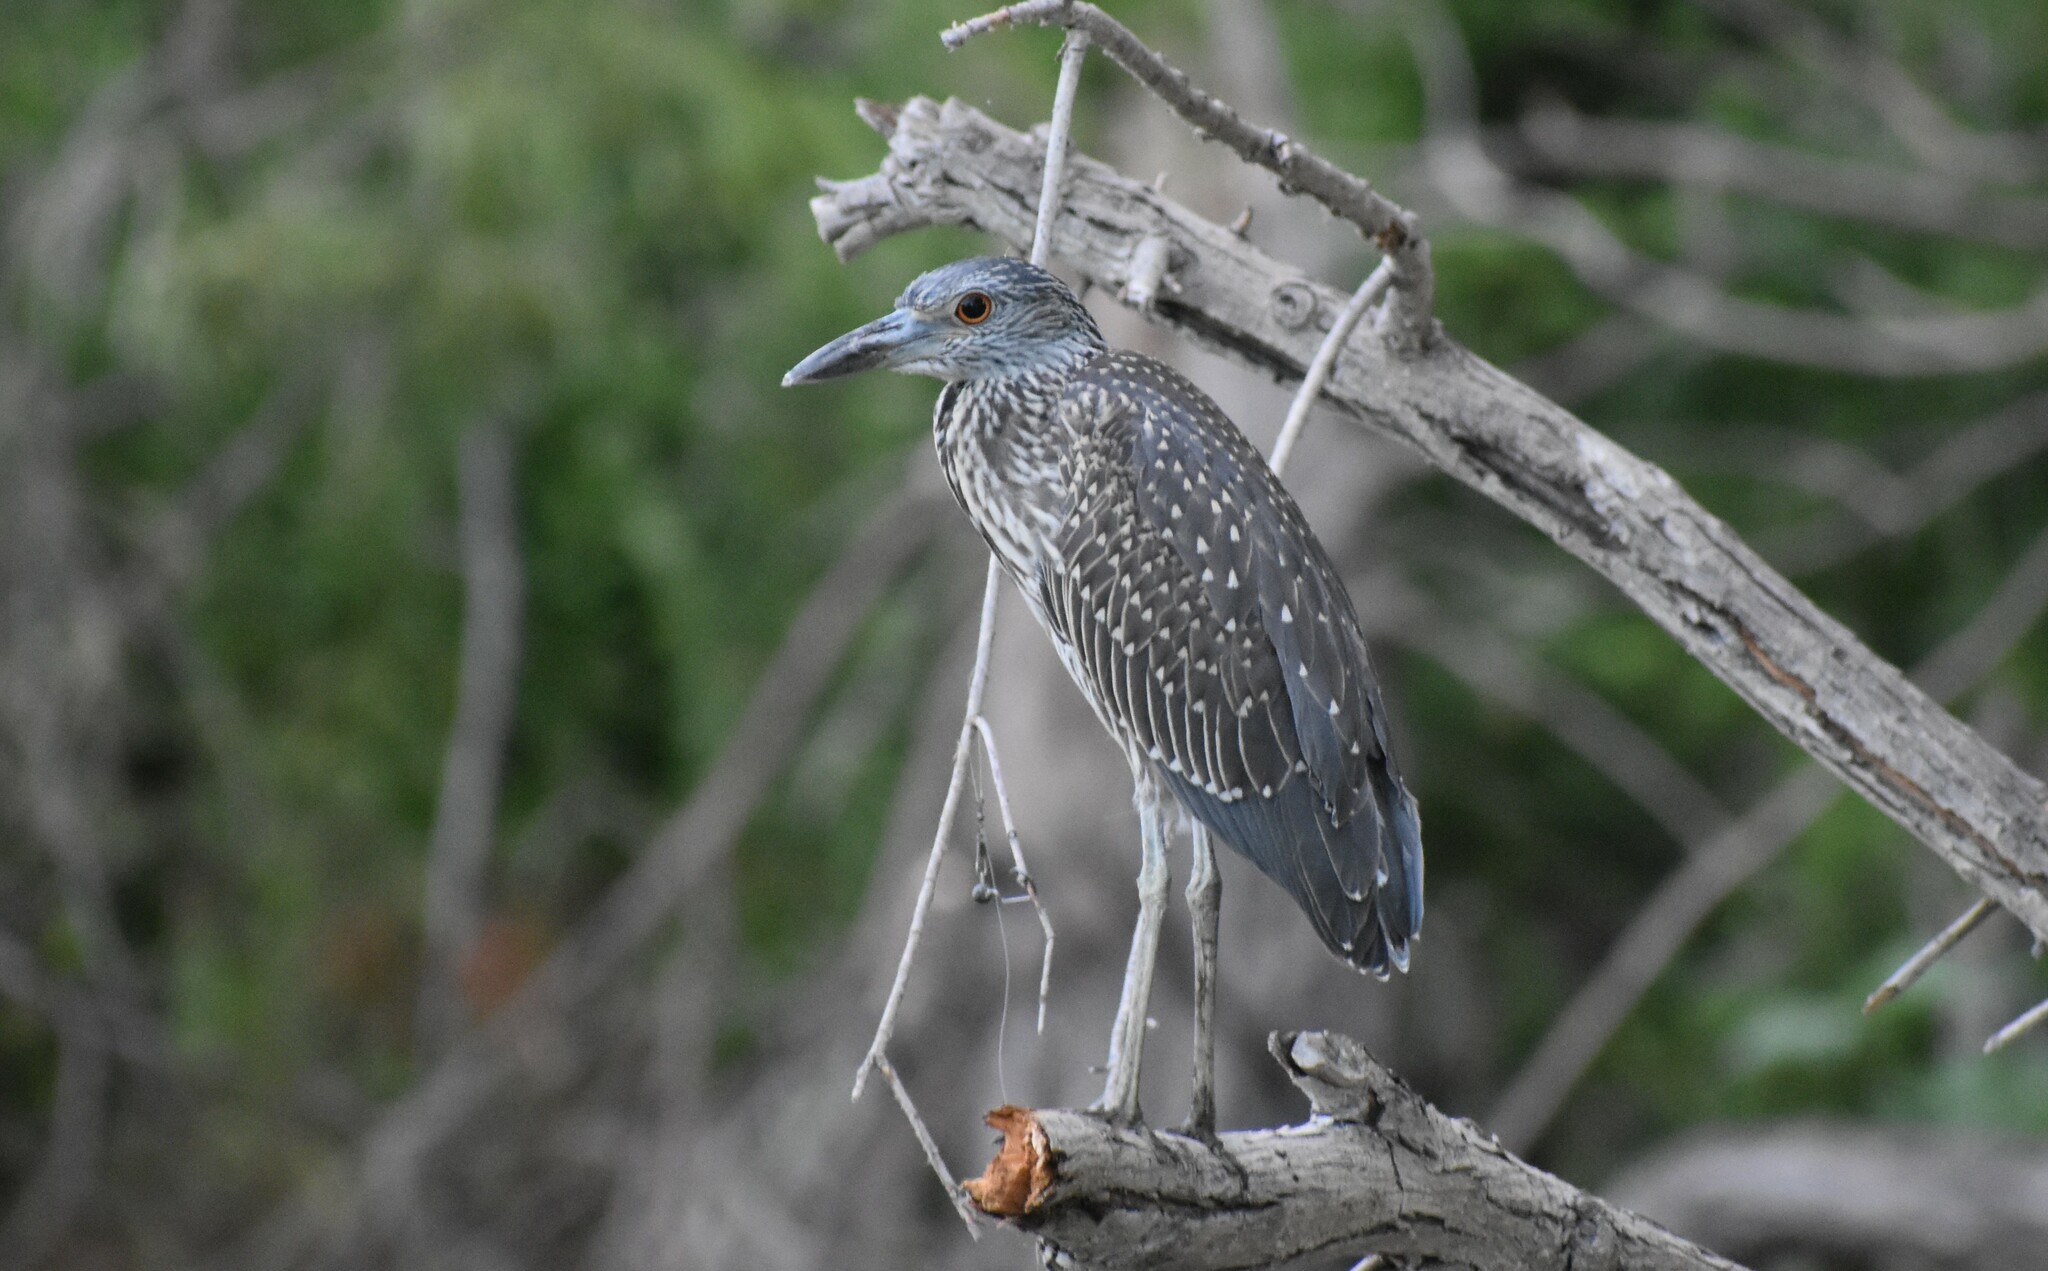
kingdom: Animalia
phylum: Chordata
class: Aves
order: Pelecaniformes
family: Ardeidae
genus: Nyctanassa
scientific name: Nyctanassa violacea
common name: Yellow-crowned night heron
